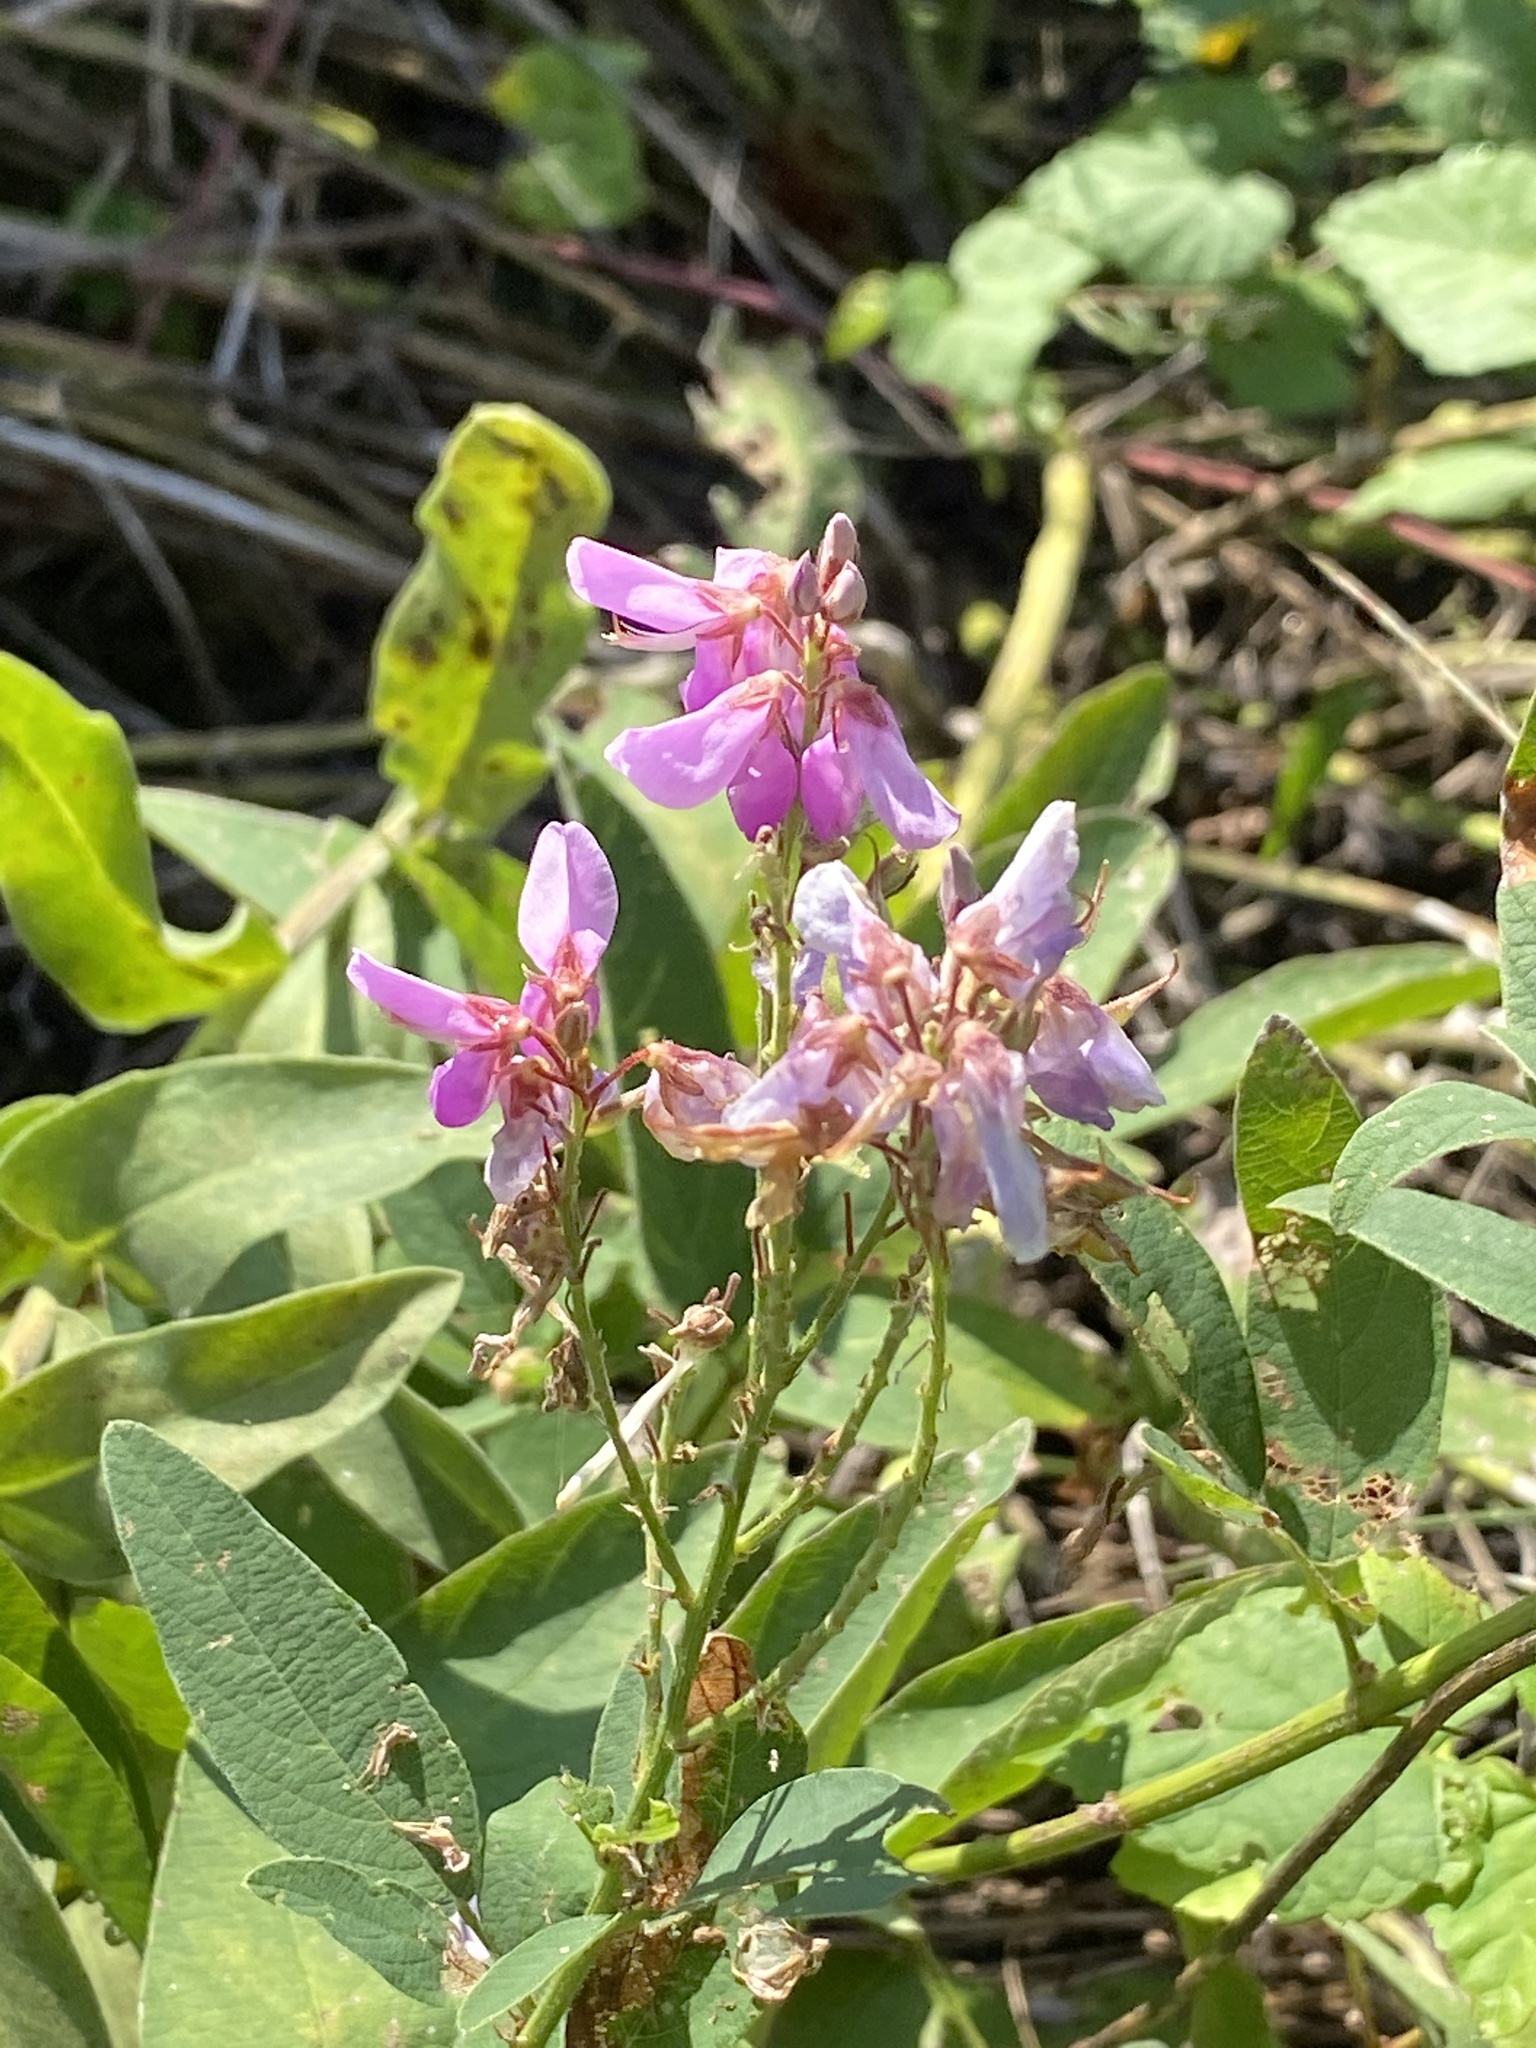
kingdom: Plantae
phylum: Tracheophyta
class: Magnoliopsida
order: Fabales
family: Fabaceae
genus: Desmodium
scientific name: Desmodium canadense
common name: Canada tick-trefoil
